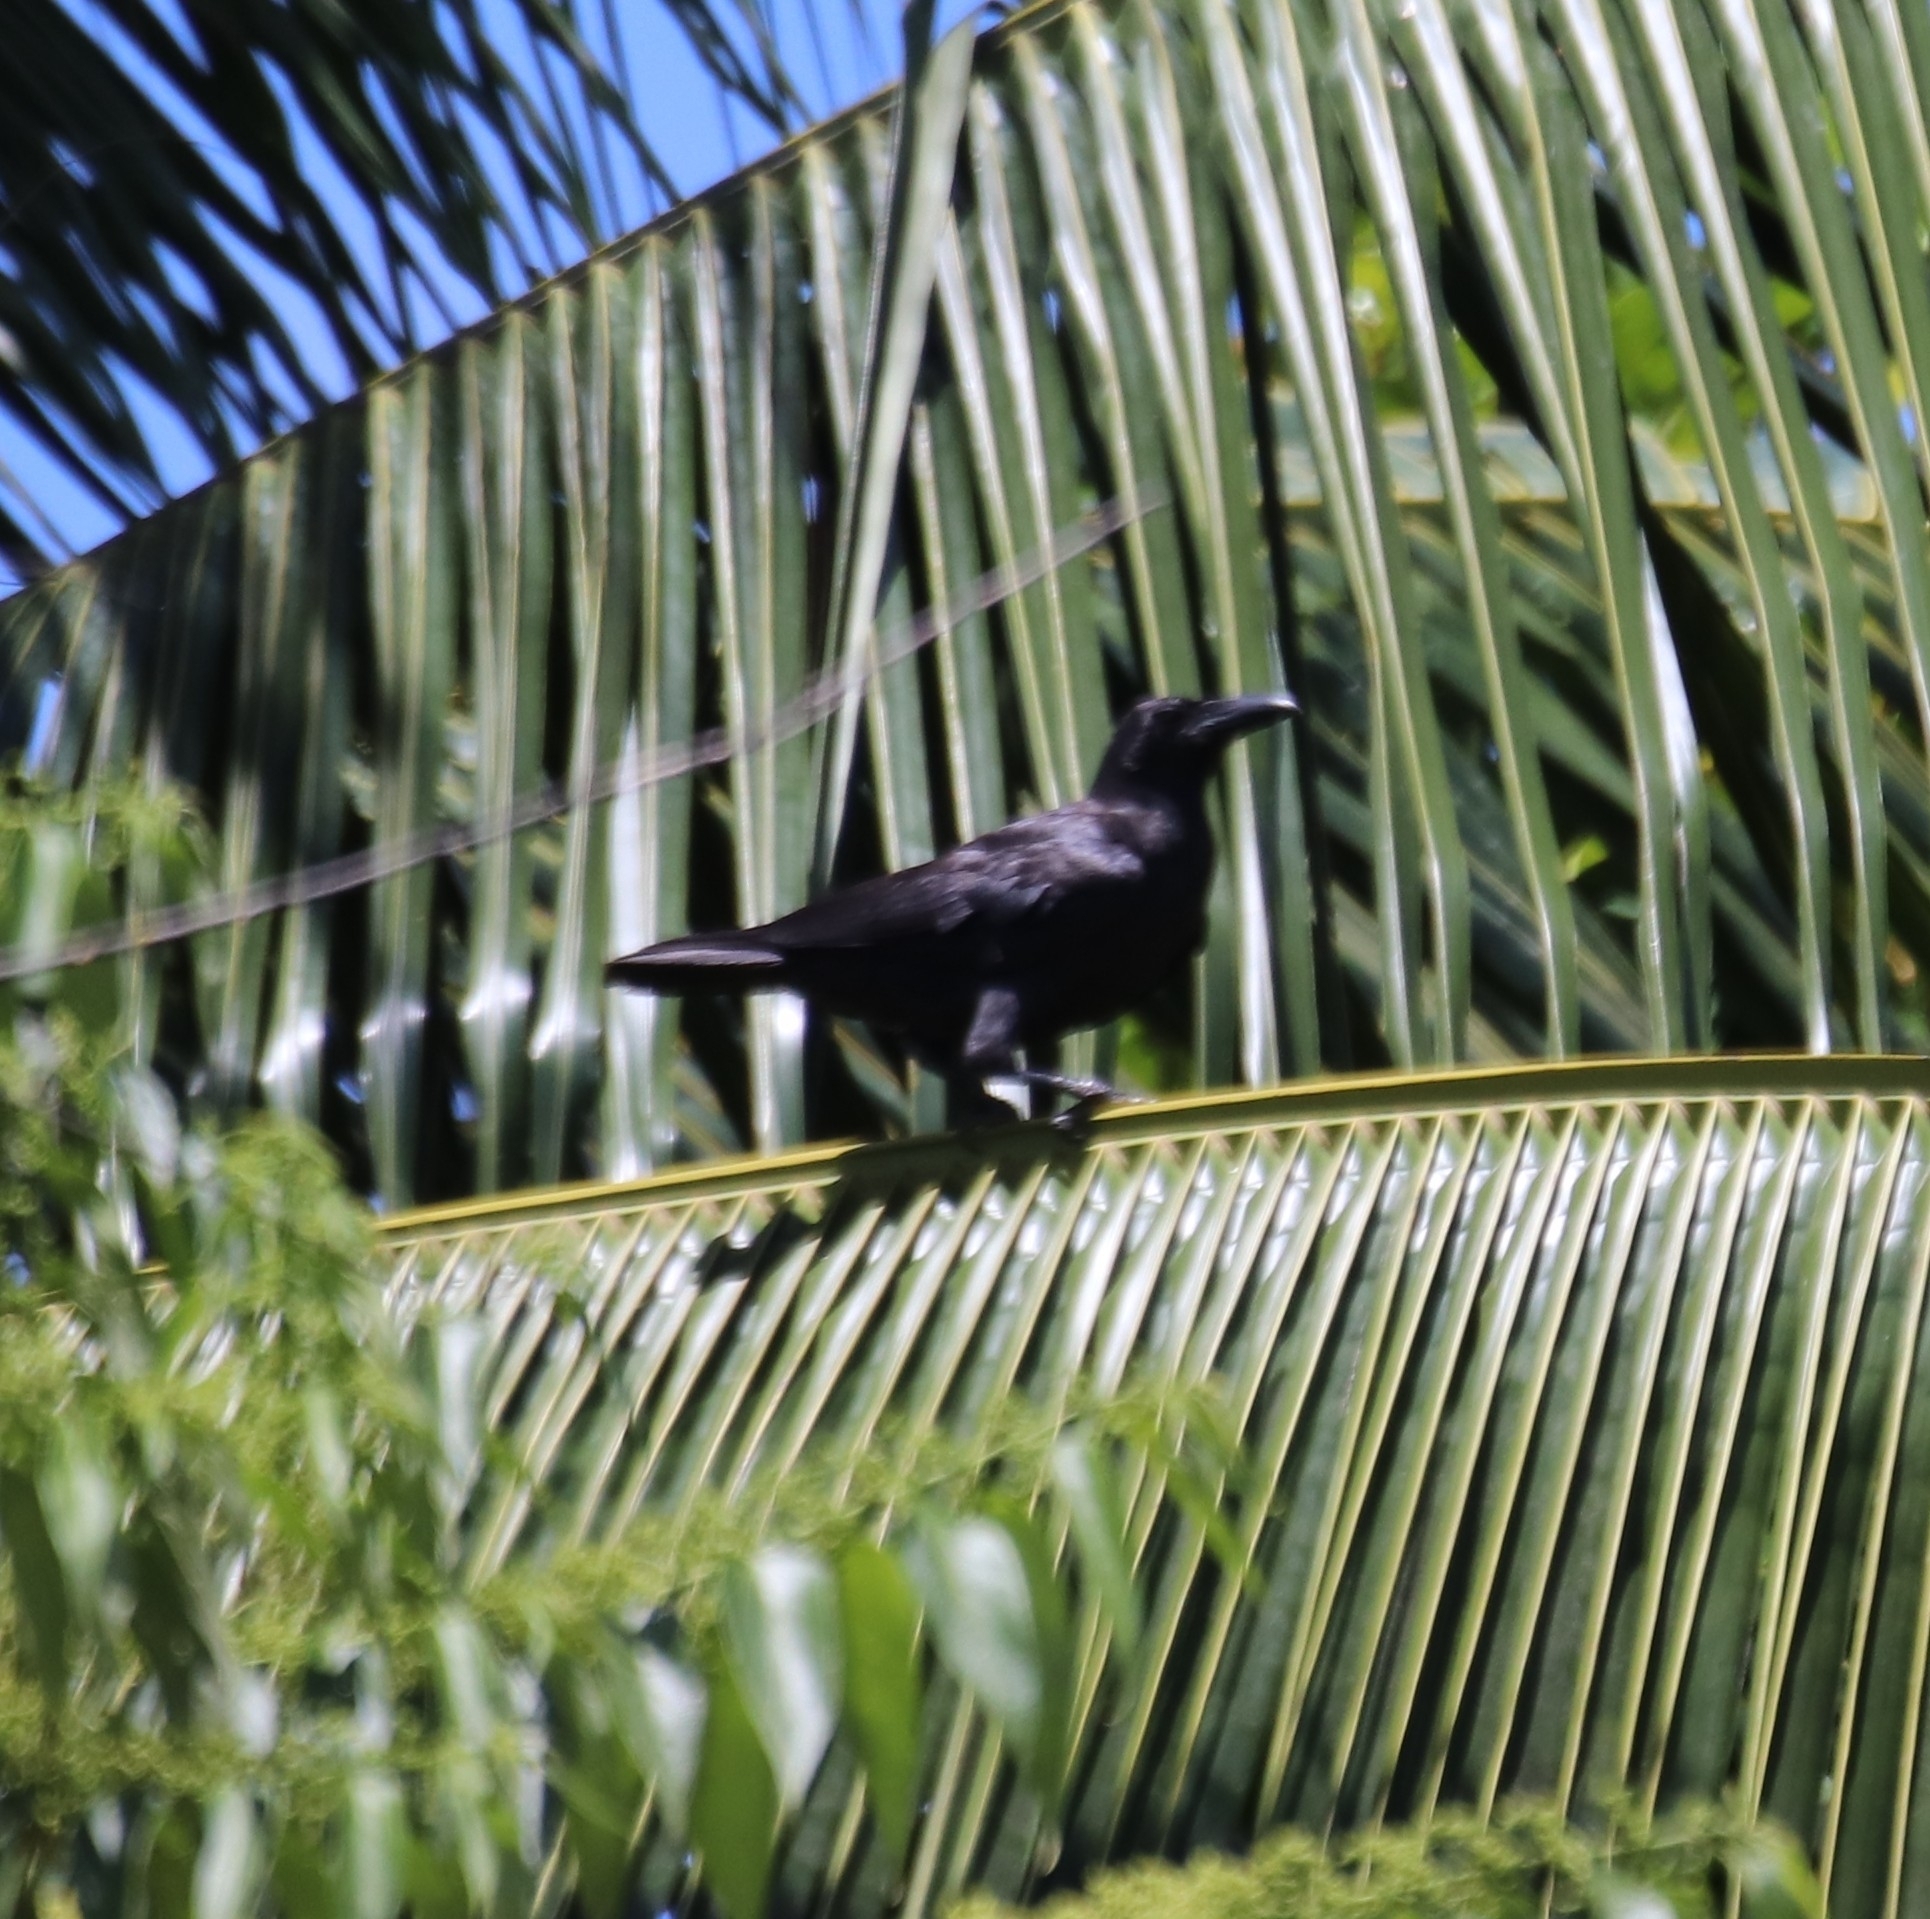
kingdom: Animalia
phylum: Chordata
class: Aves
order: Passeriformes
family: Corvidae
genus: Corvus
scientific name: Corvus enca
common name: Slender-billed crow
